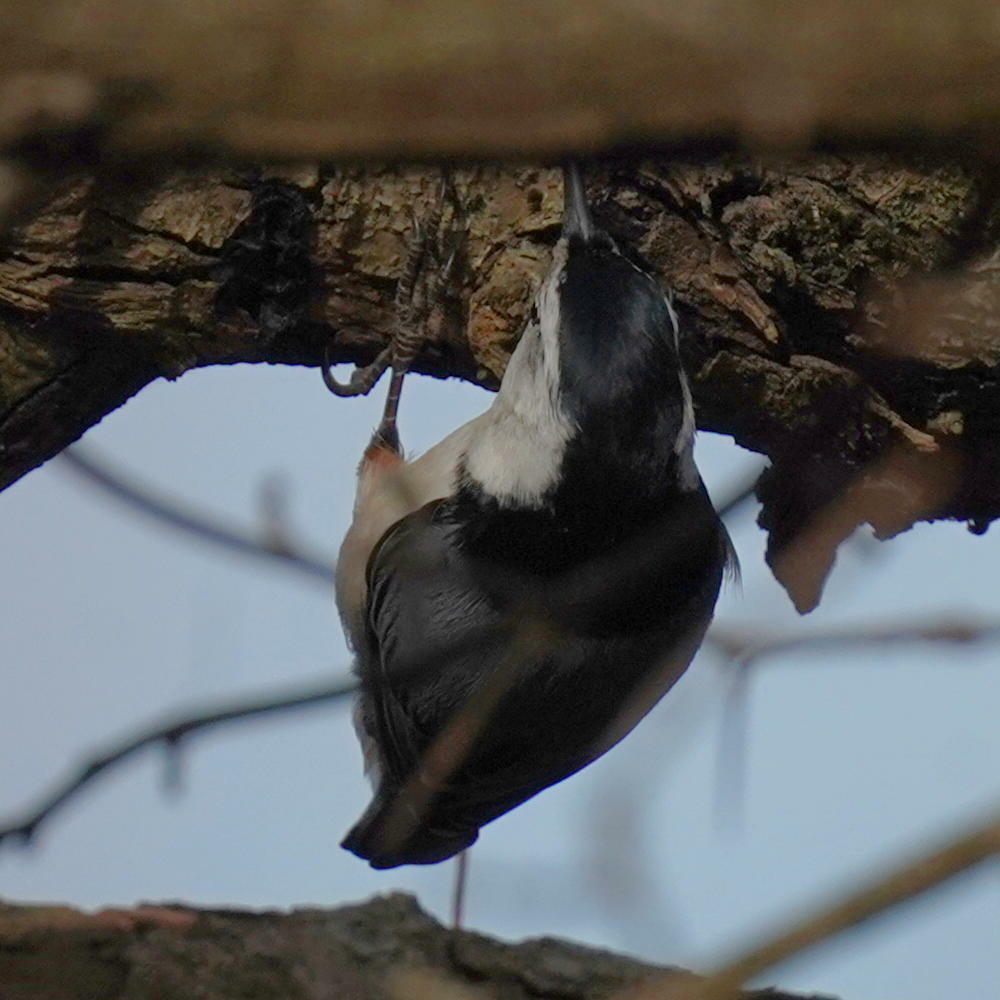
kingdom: Animalia
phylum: Chordata
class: Aves
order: Passeriformes
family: Sittidae
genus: Sitta
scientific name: Sitta carolinensis
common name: White-breasted nuthatch
